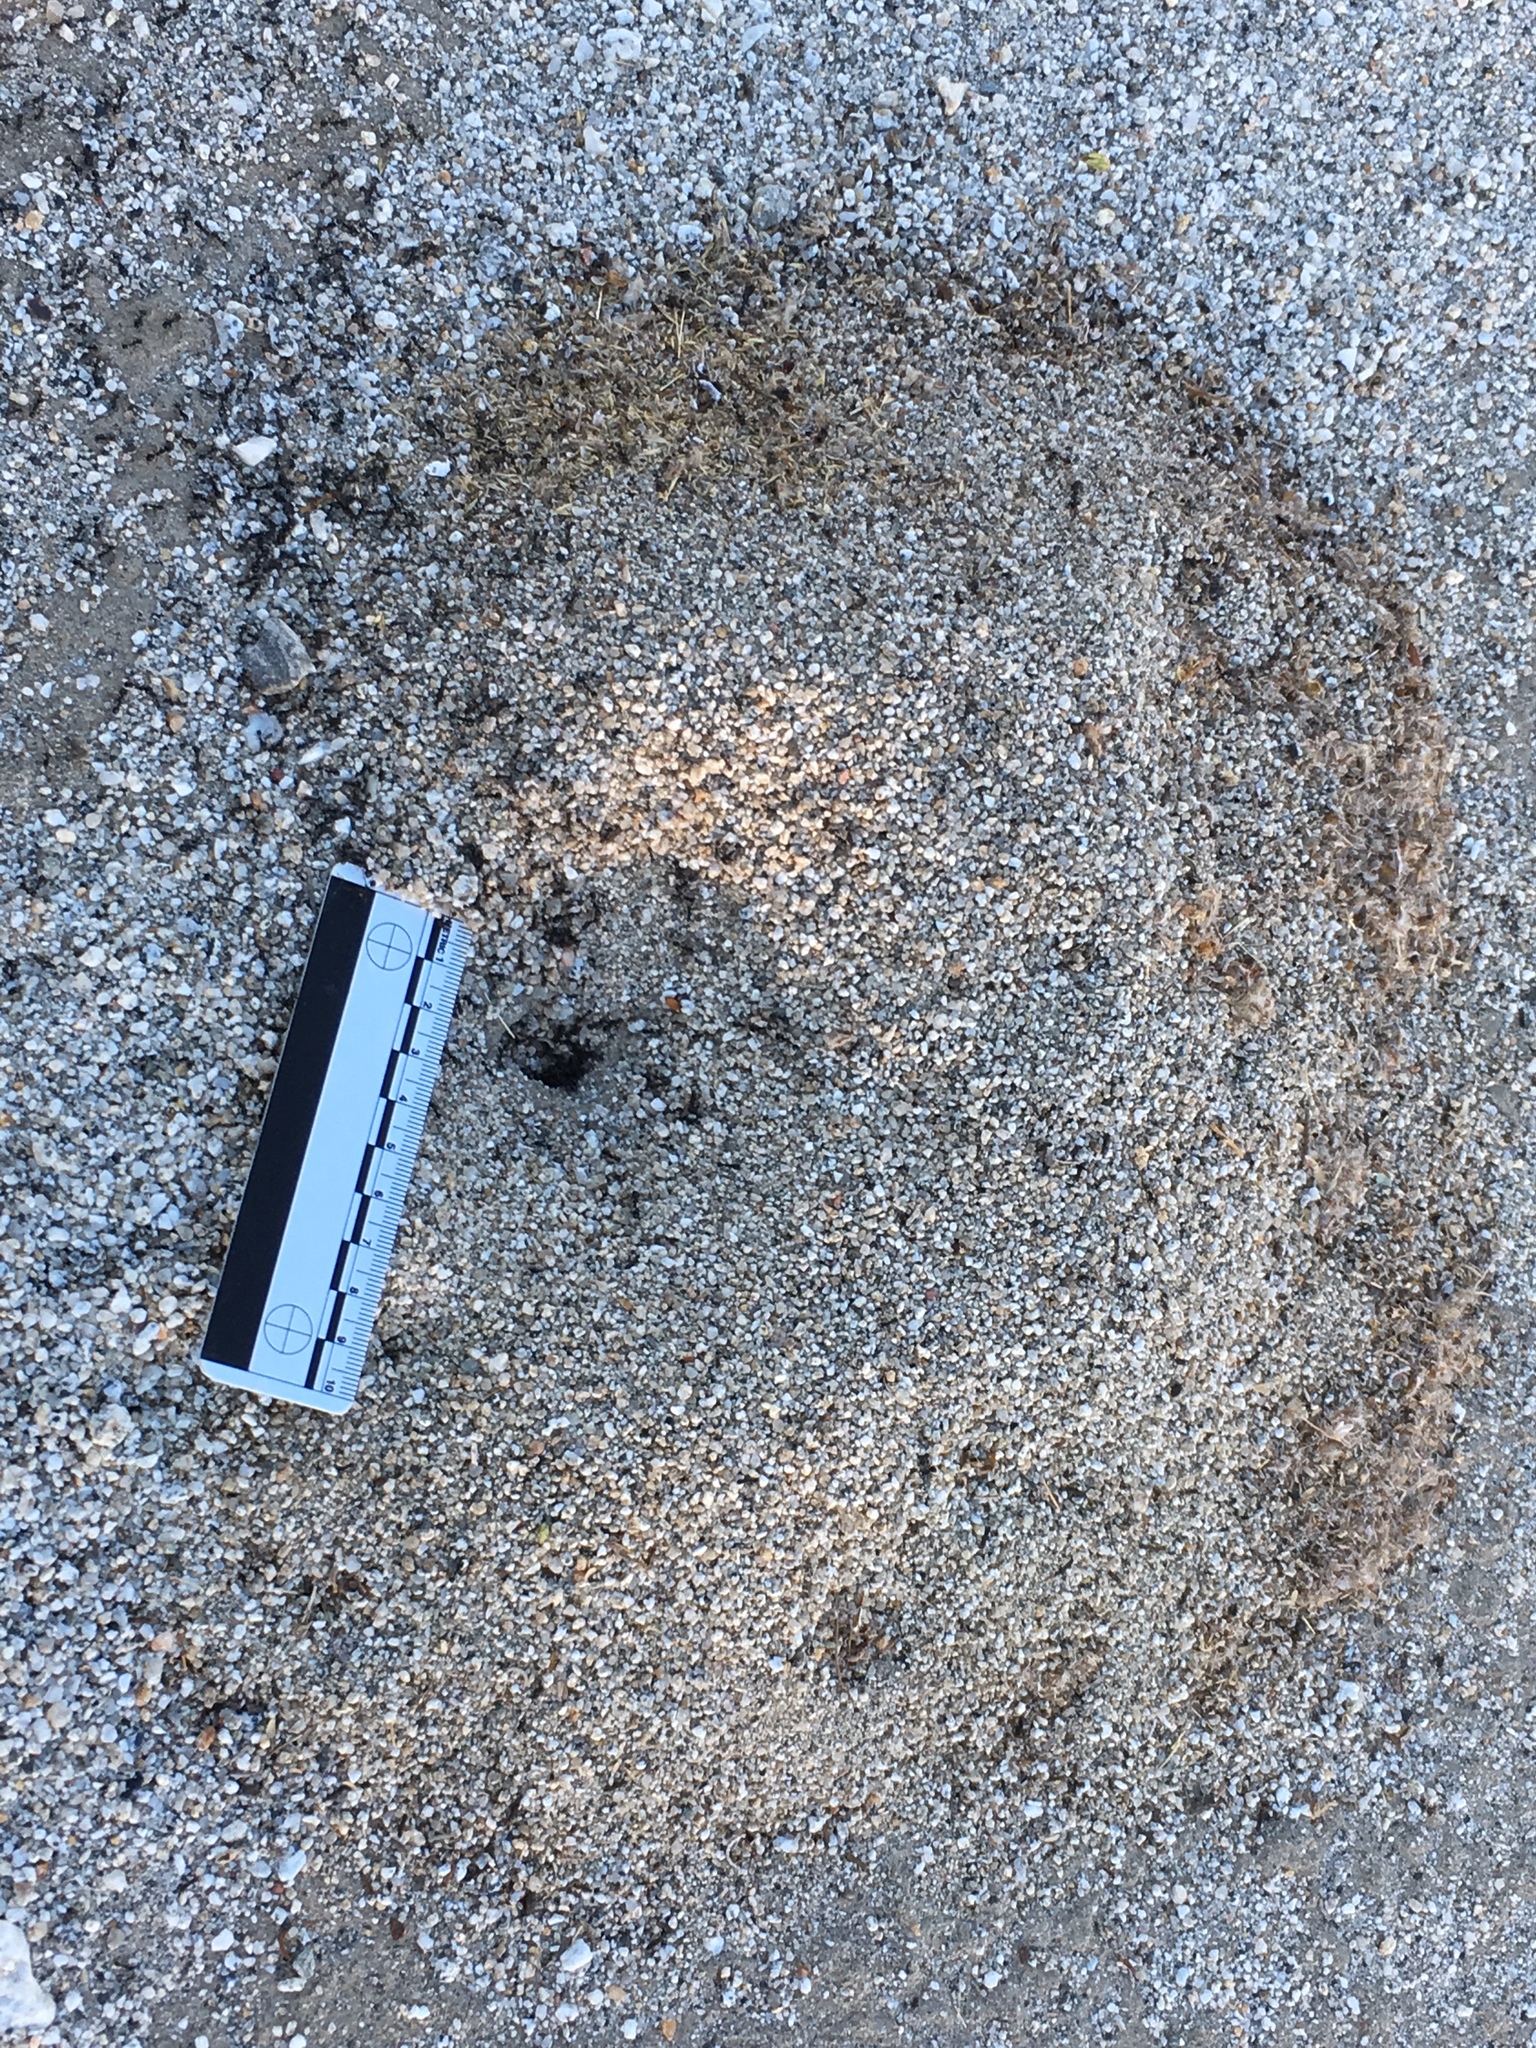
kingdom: Animalia
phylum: Arthropoda
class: Insecta
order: Hymenoptera
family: Formicidae
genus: Messor
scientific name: Messor pergandei
